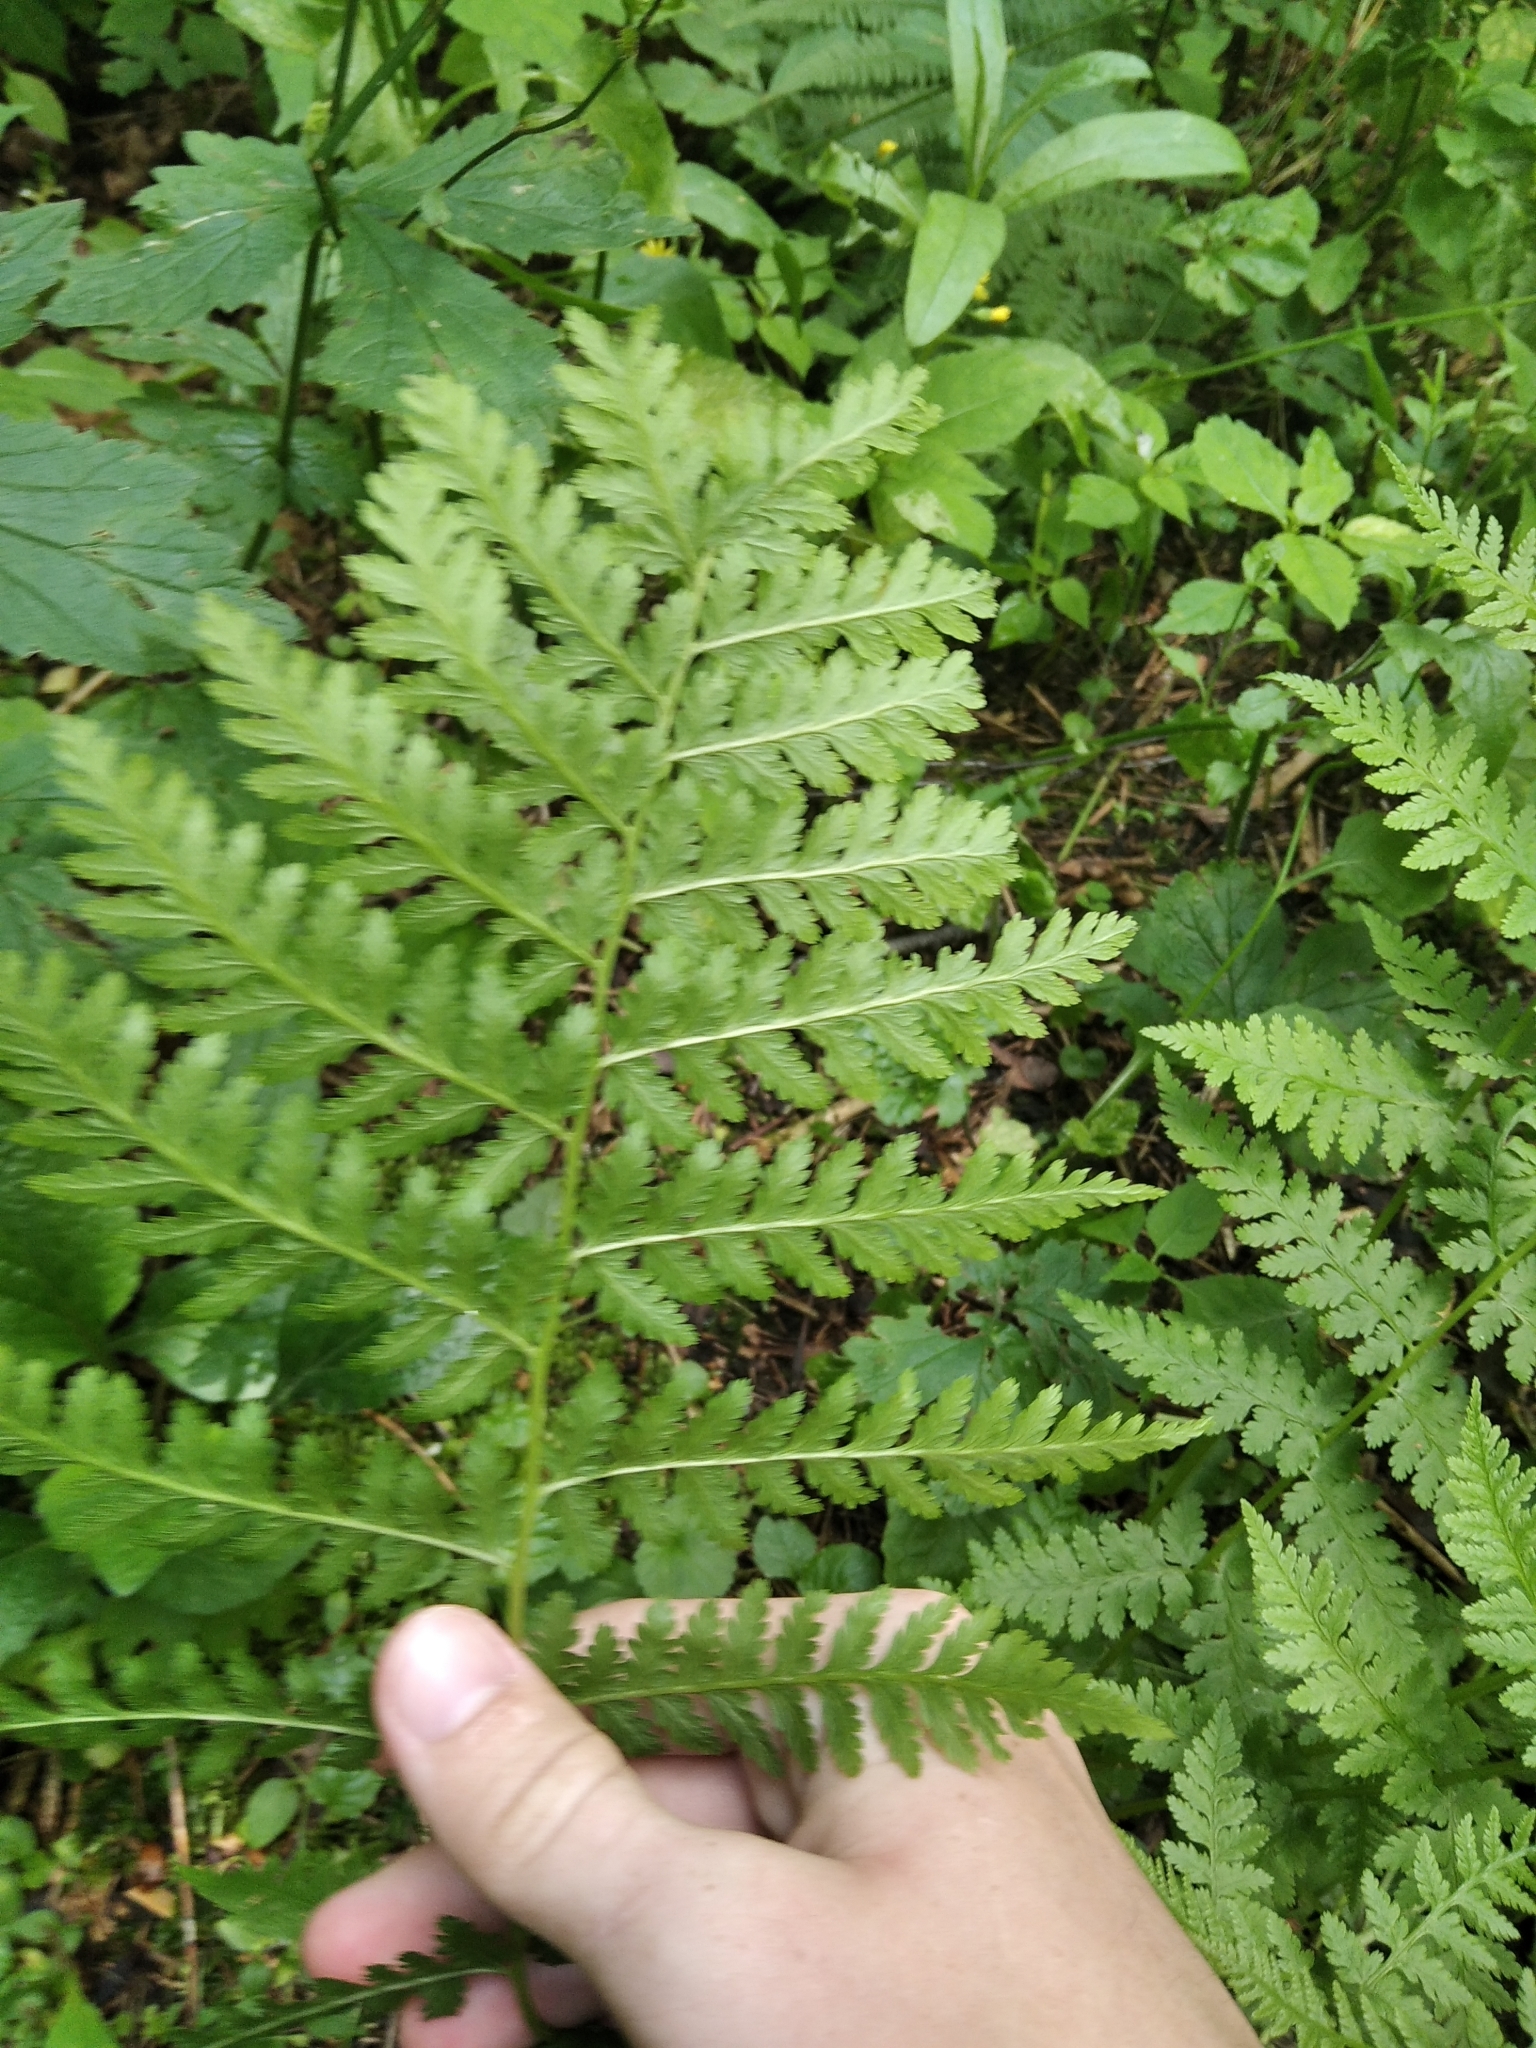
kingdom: Plantae
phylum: Tracheophyta
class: Polypodiopsida
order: Polypodiales
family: Dryopteridaceae
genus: Dryopteris
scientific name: Dryopteris carthusiana
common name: Narrow buckler-fern
